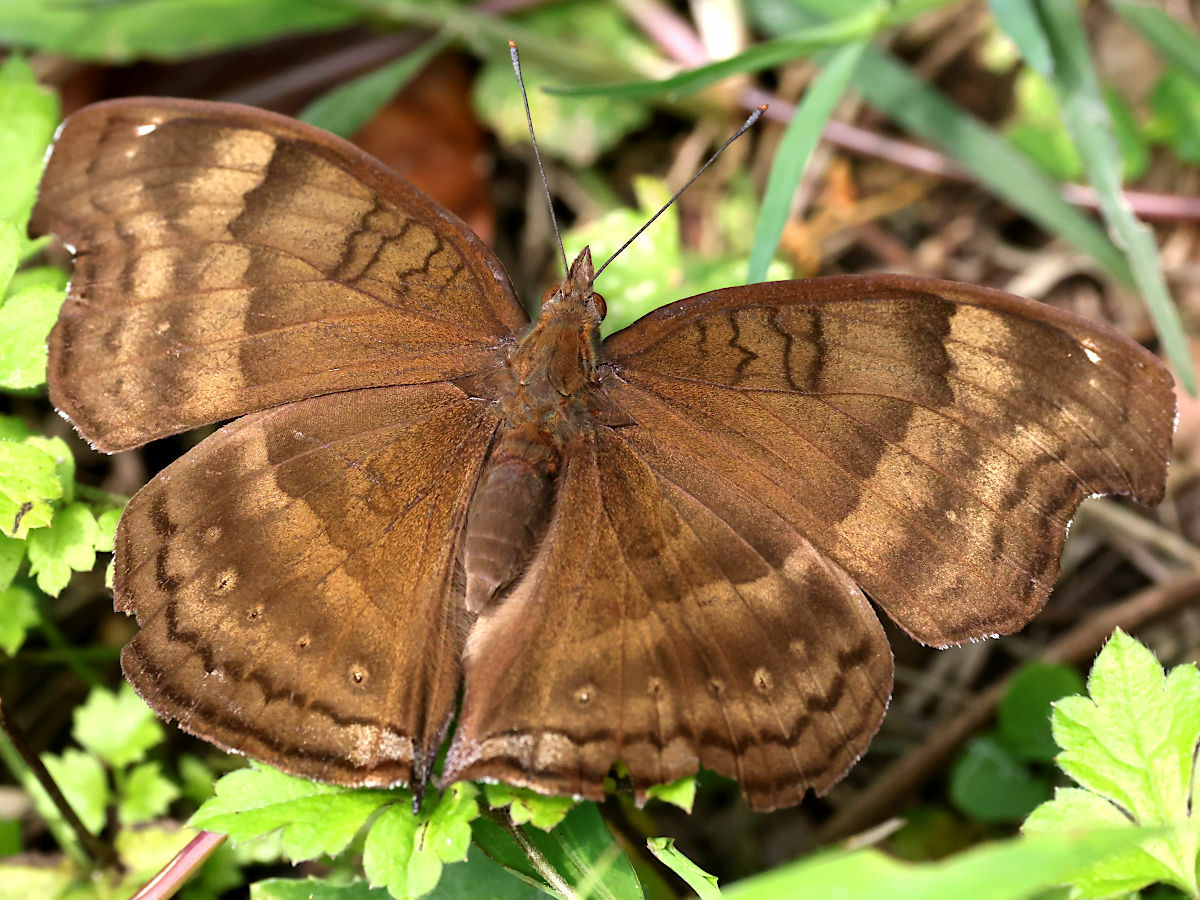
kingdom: Animalia
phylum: Arthropoda
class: Insecta
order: Lepidoptera
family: Nymphalidae
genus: Junonia
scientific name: Junonia iphita
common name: Chocolate pansy
